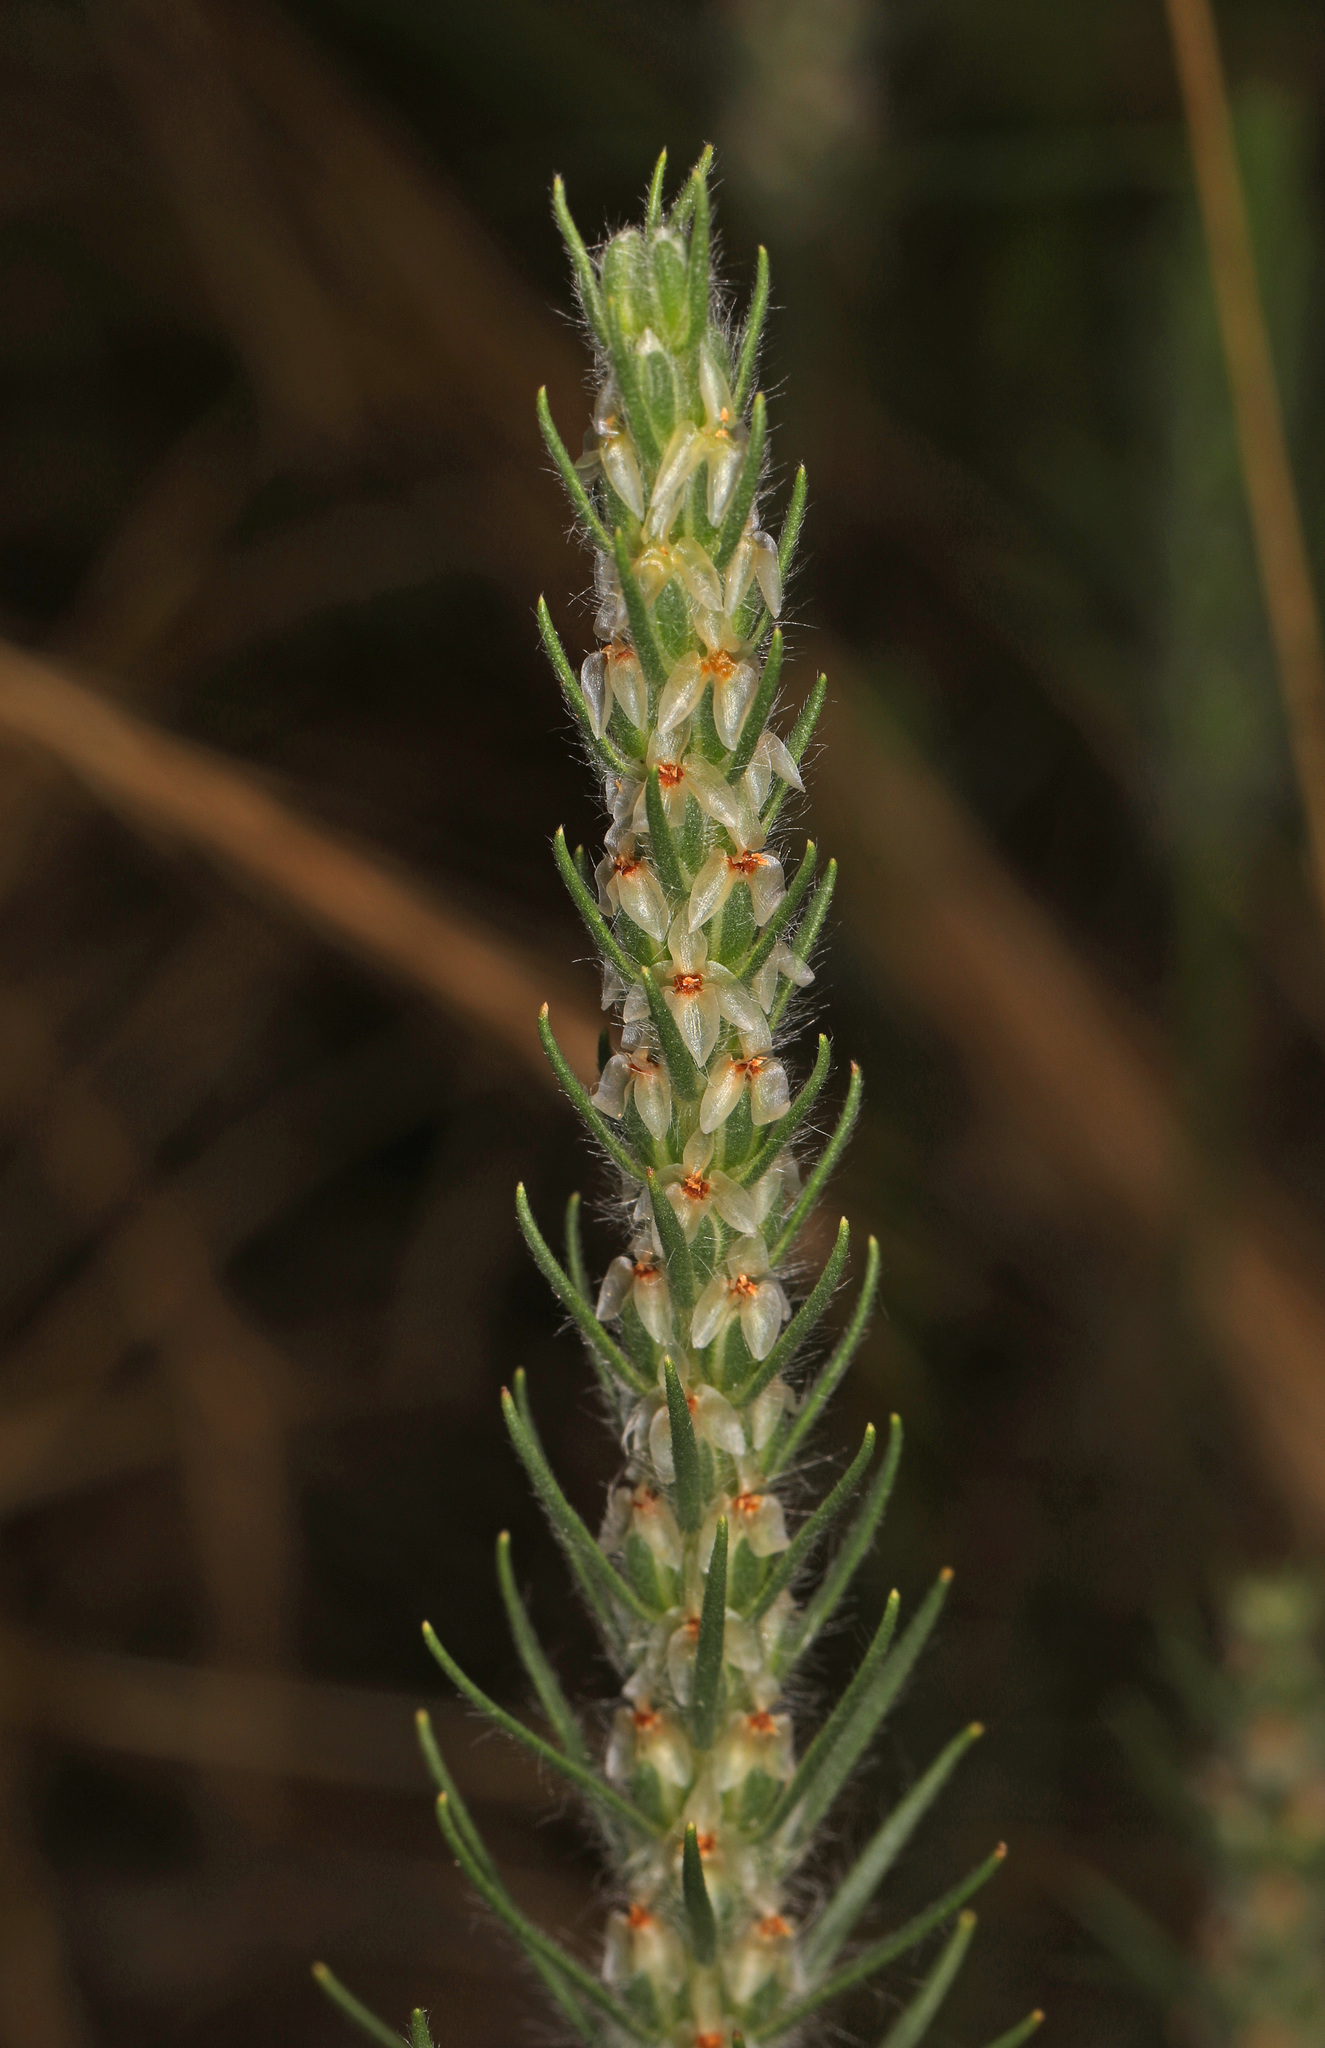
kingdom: Plantae
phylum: Tracheophyta
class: Magnoliopsida
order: Lamiales
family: Plantaginaceae
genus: Plantago
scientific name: Plantago aristata
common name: Bracted plantain
